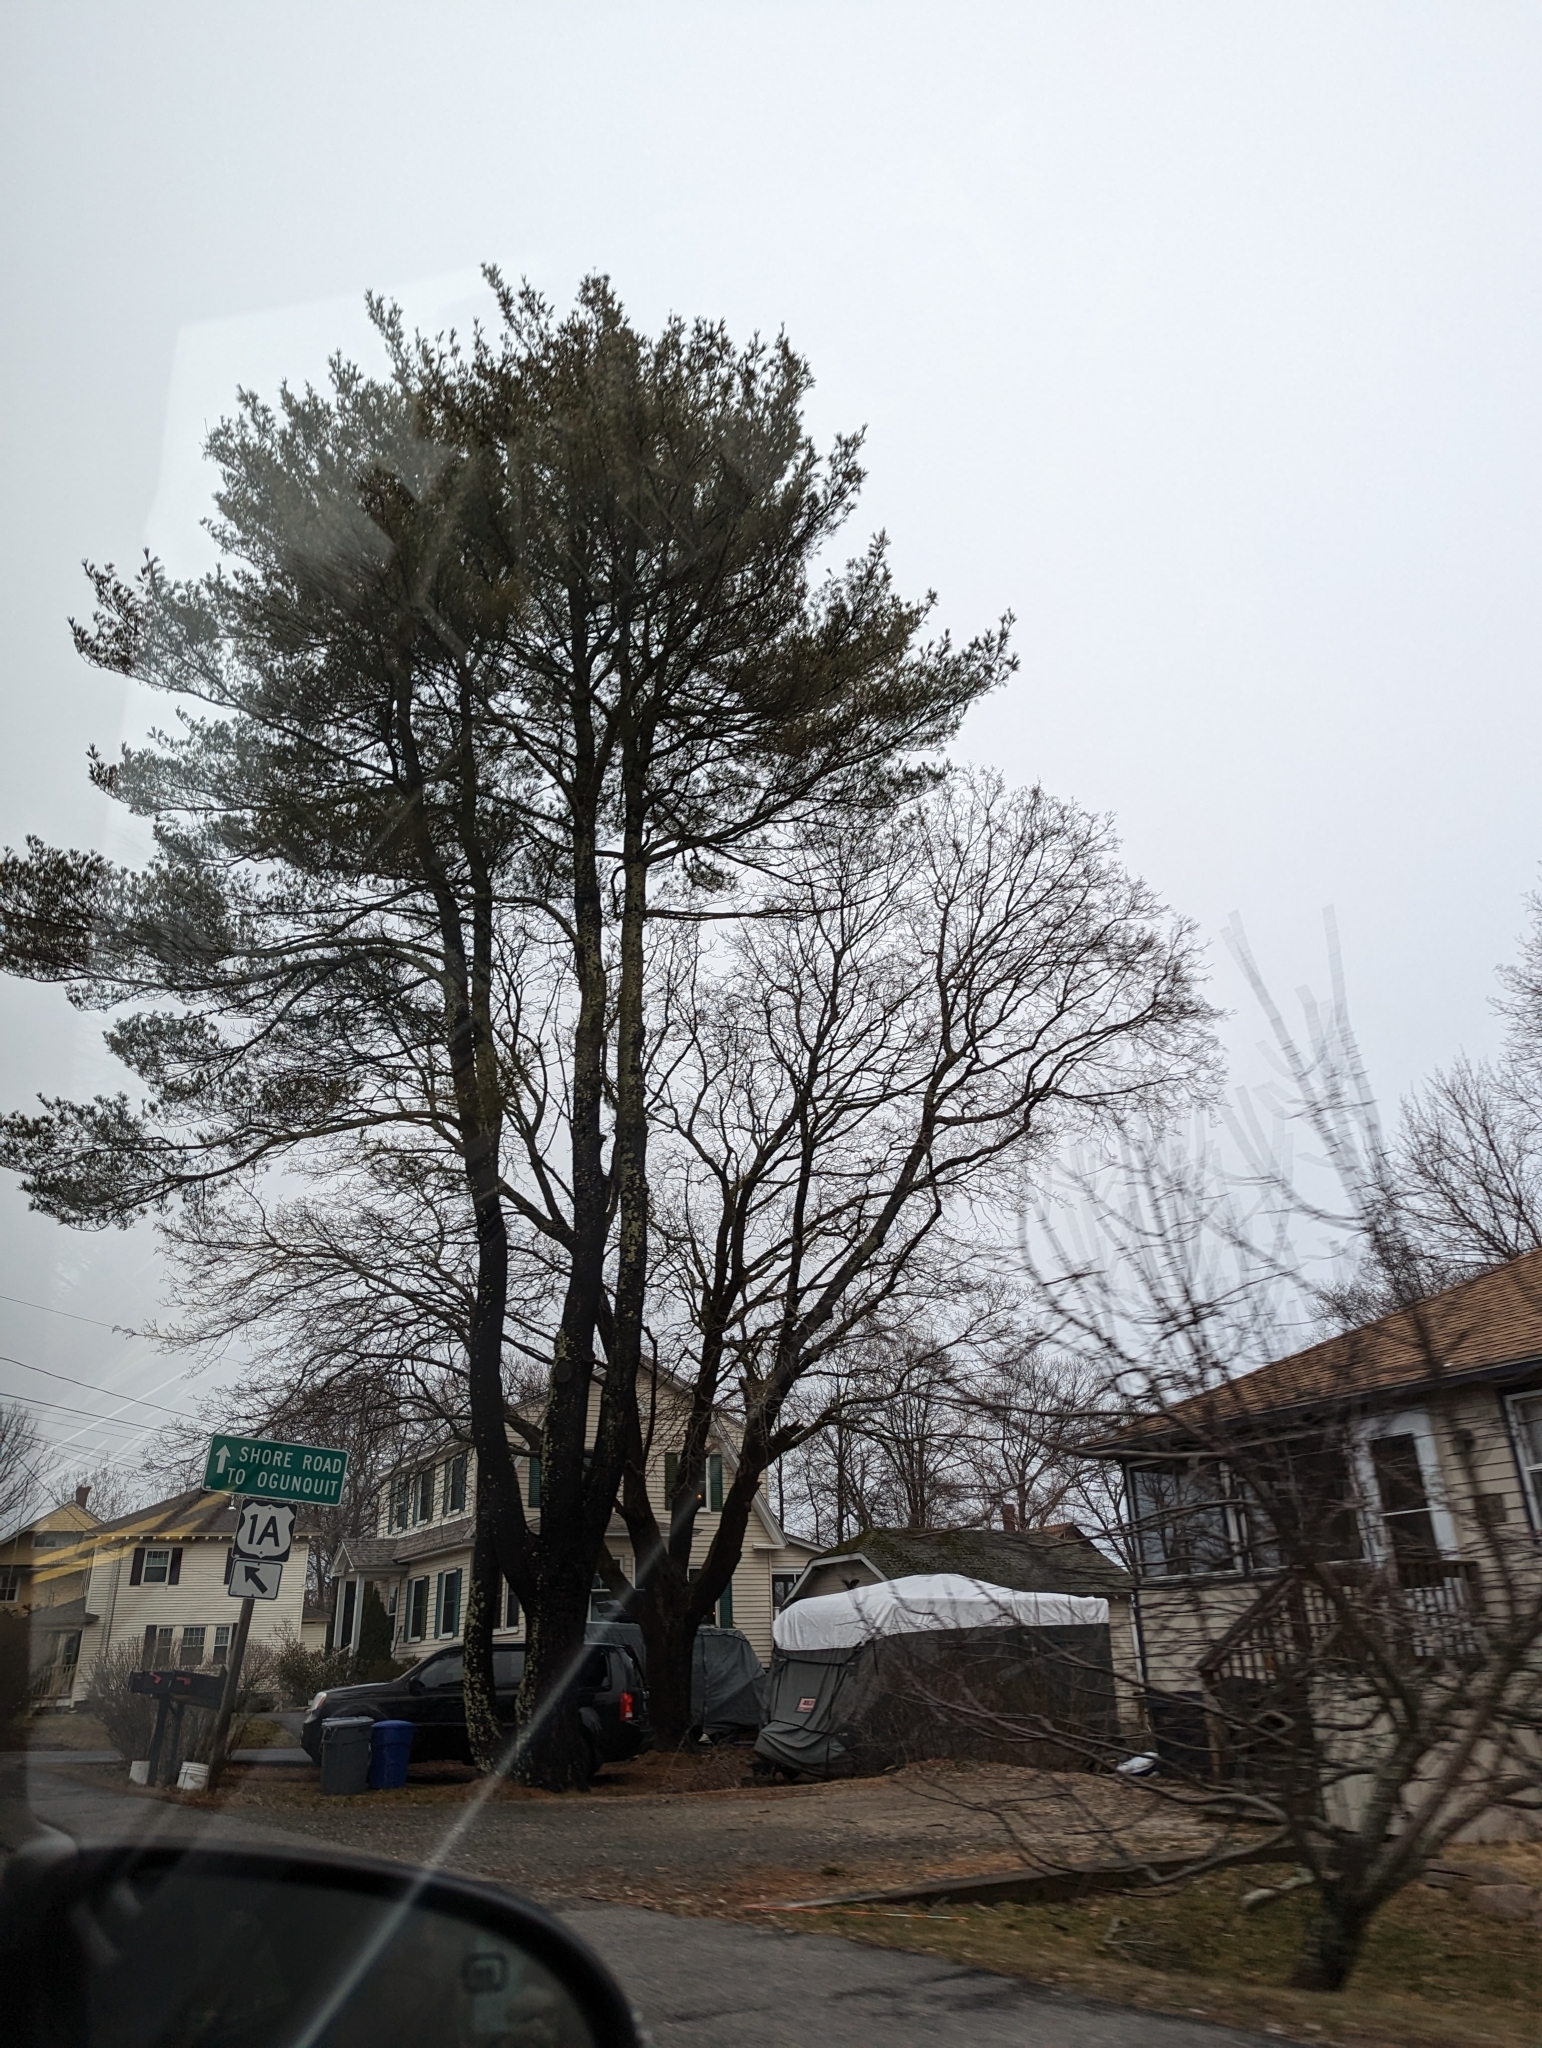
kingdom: Plantae
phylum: Tracheophyta
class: Pinopsida
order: Pinales
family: Pinaceae
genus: Pinus
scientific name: Pinus strobus
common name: Weymouth pine
